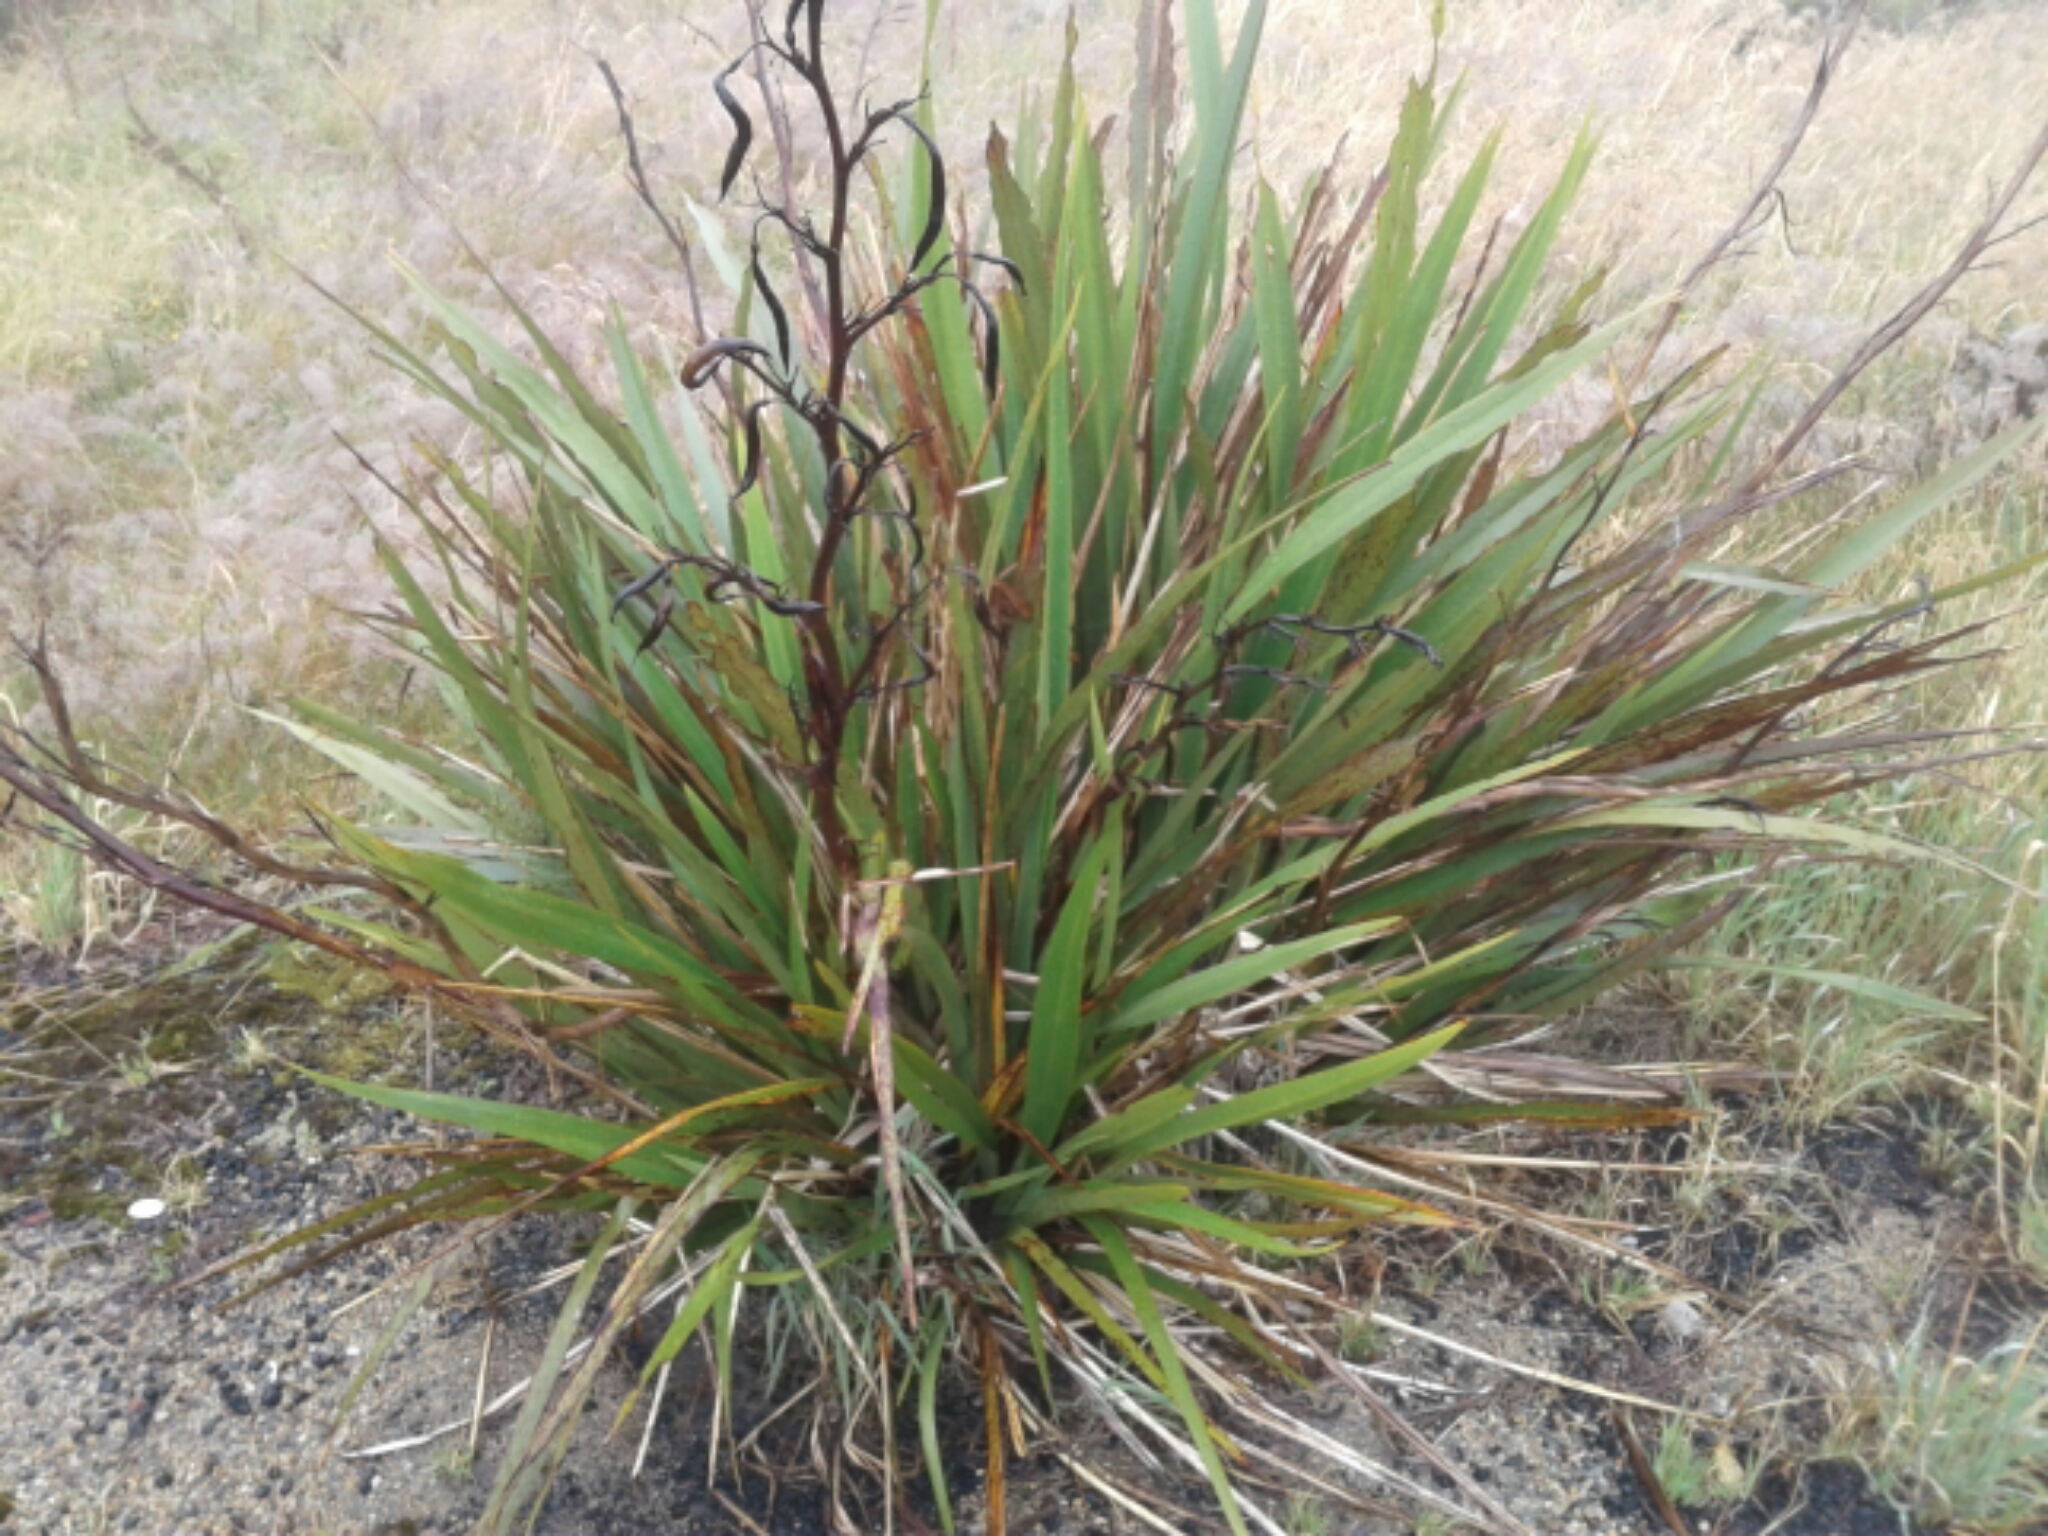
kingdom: Plantae
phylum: Tracheophyta
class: Liliopsida
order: Asparagales
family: Asphodelaceae
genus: Phormium
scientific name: Phormium colensoi
